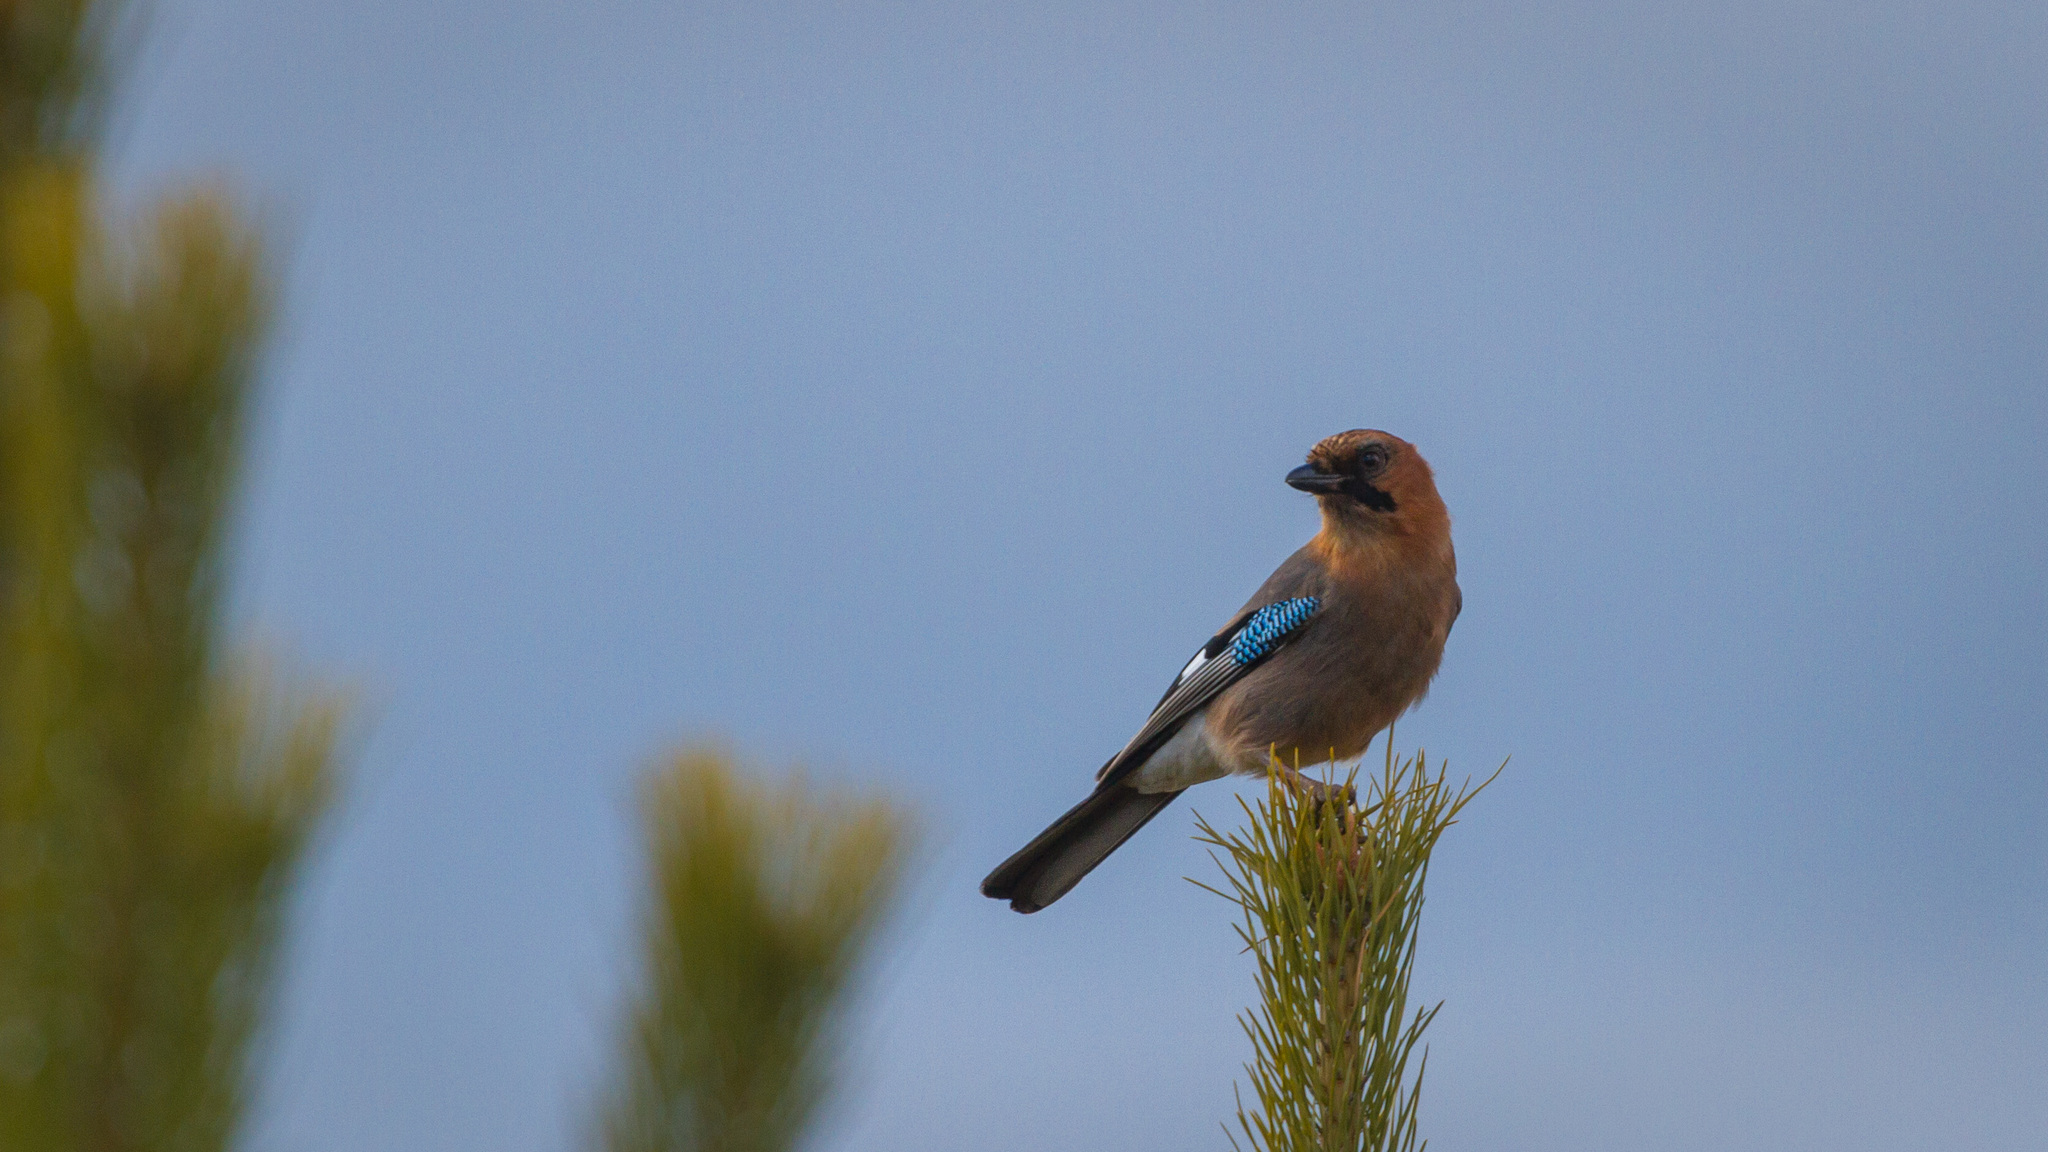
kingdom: Animalia
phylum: Chordata
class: Aves
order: Passeriformes
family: Corvidae
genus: Garrulus
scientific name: Garrulus glandarius
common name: Eurasian jay
